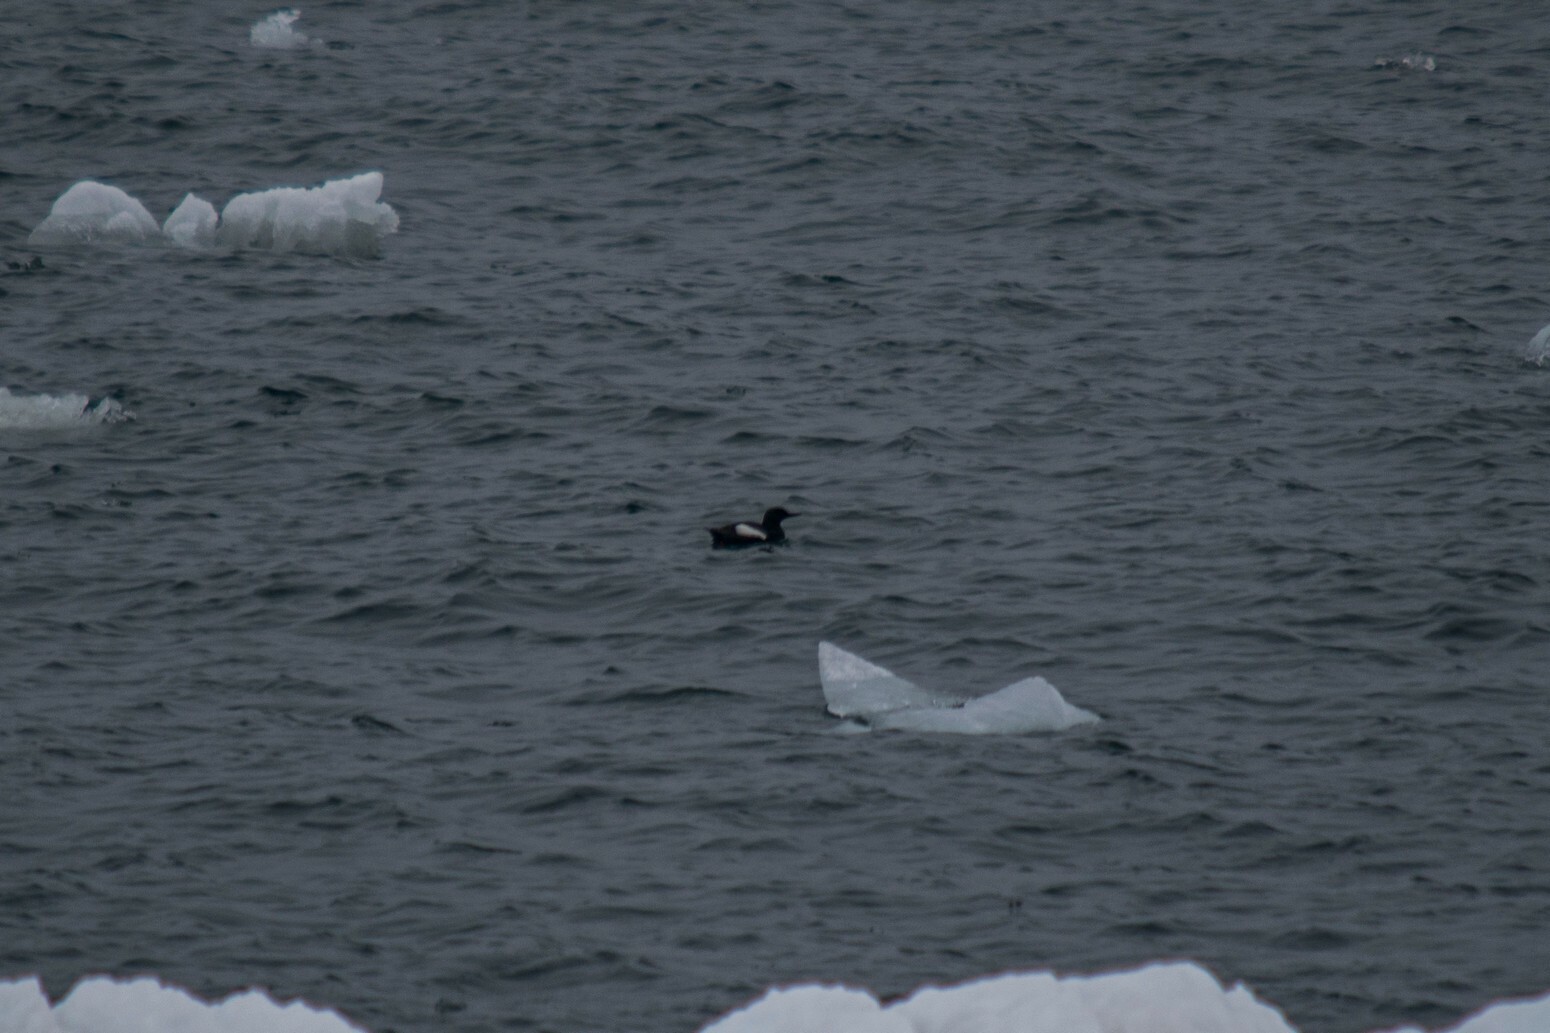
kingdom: Animalia
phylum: Chordata
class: Aves
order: Charadriiformes
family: Alcidae
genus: Cepphus
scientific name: Cepphus grylle
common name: Black guillemot
